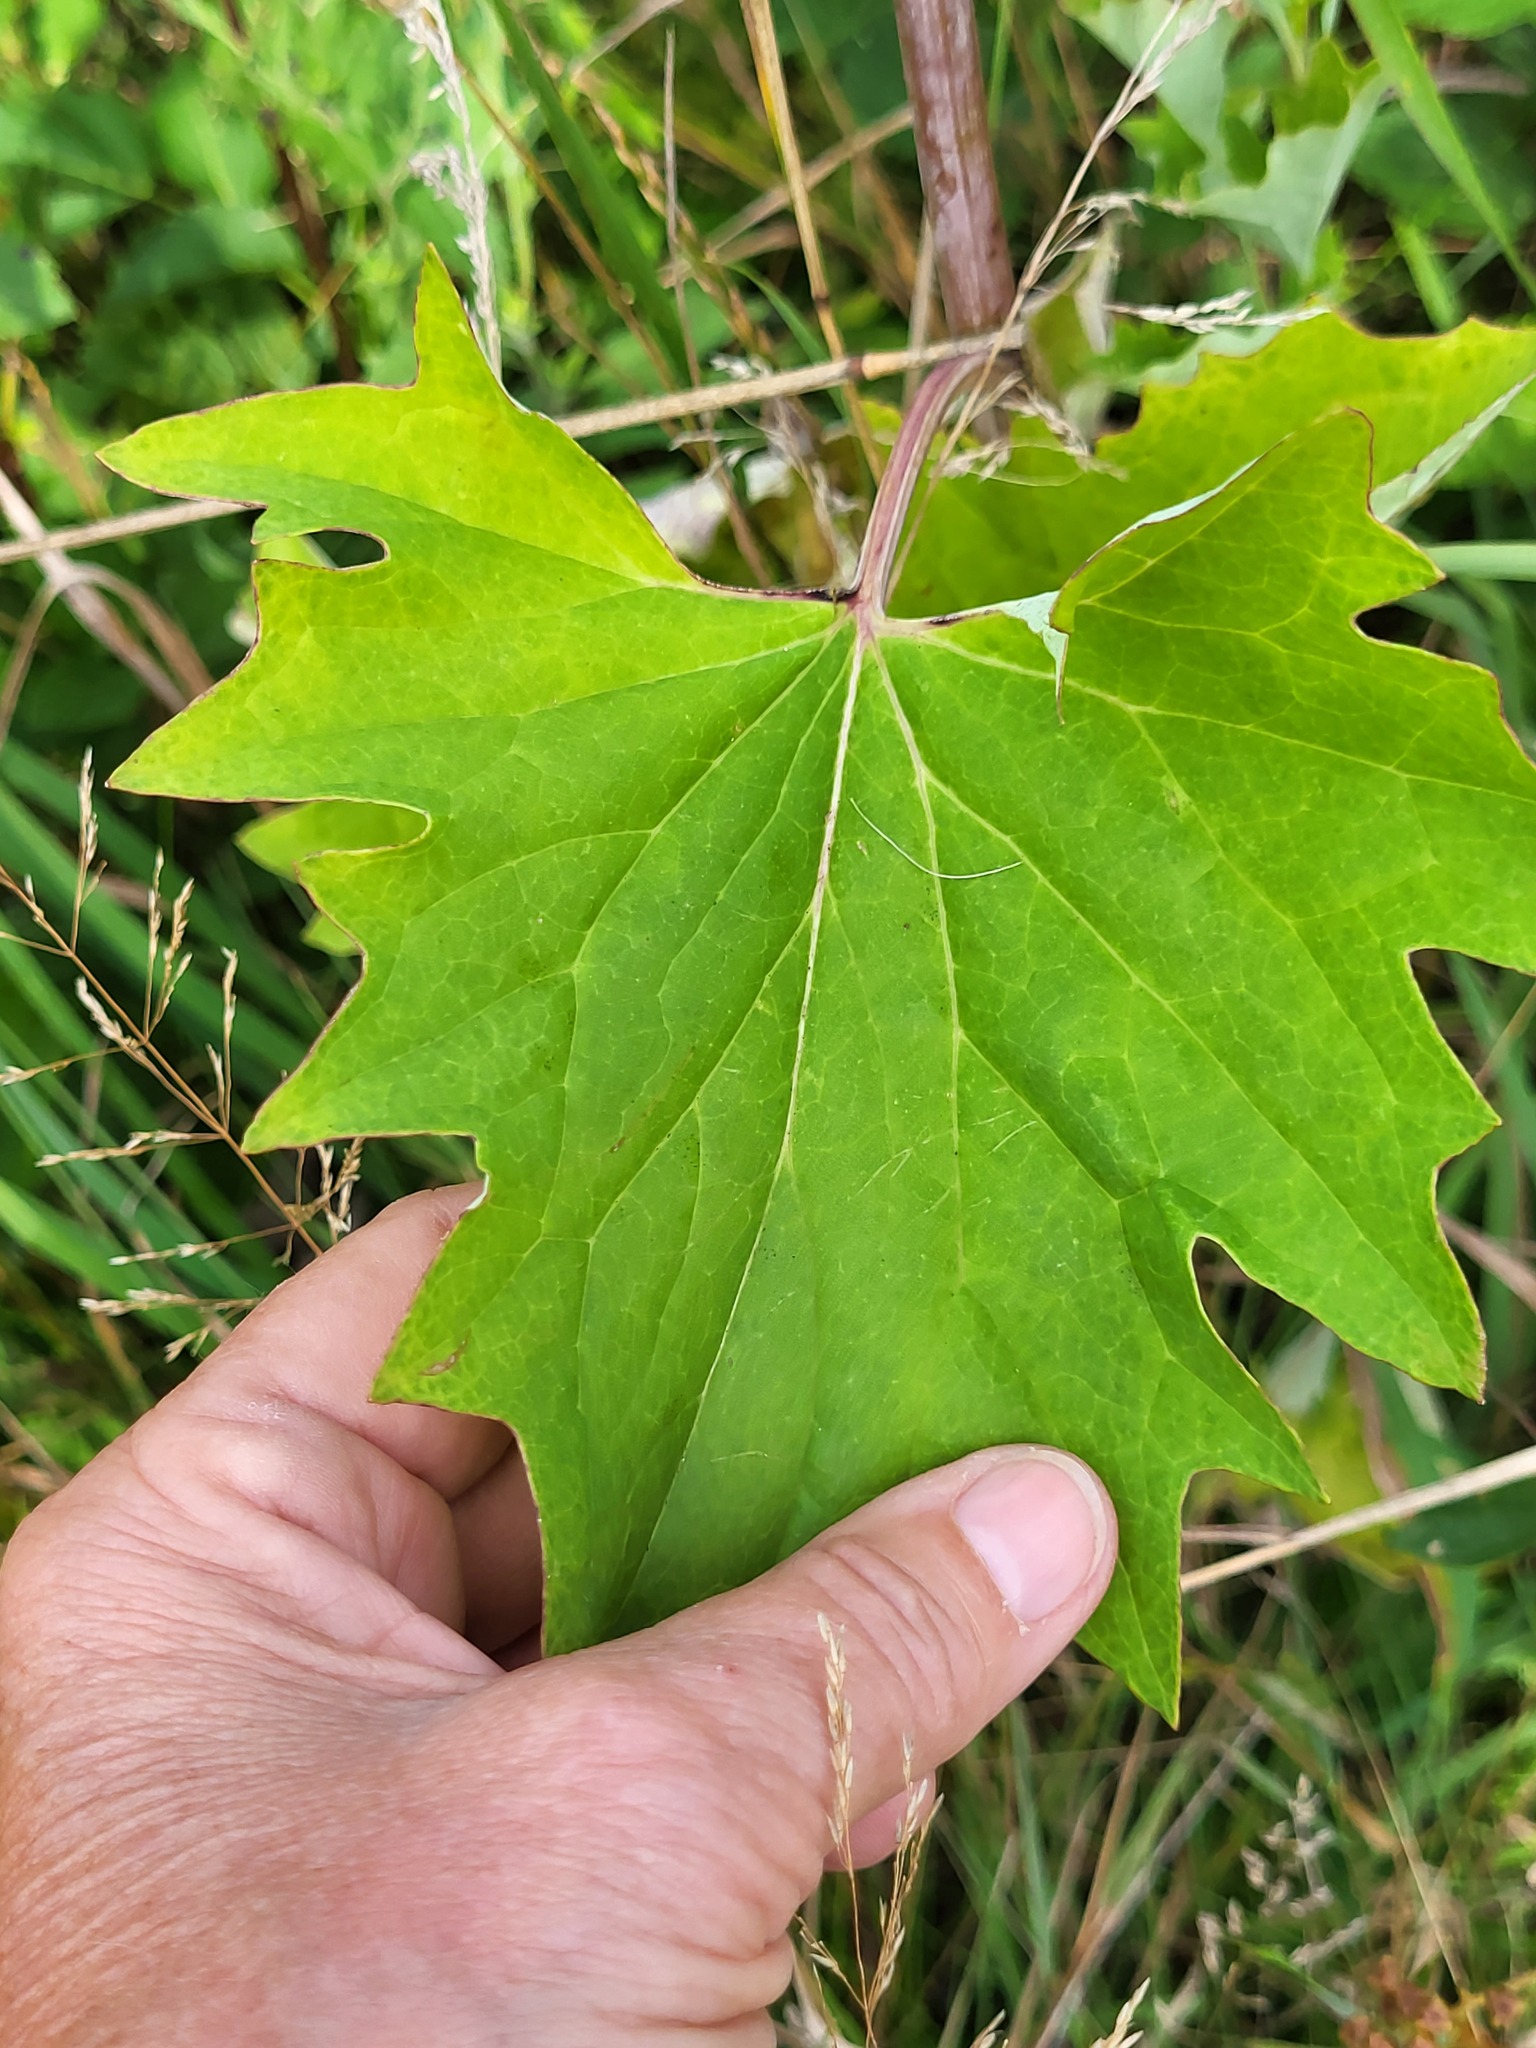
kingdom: Plantae
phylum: Tracheophyta
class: Magnoliopsida
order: Asterales
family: Asteraceae
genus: Arnoglossum
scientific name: Arnoglossum atriplicifolium
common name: Pale indian-plantain
